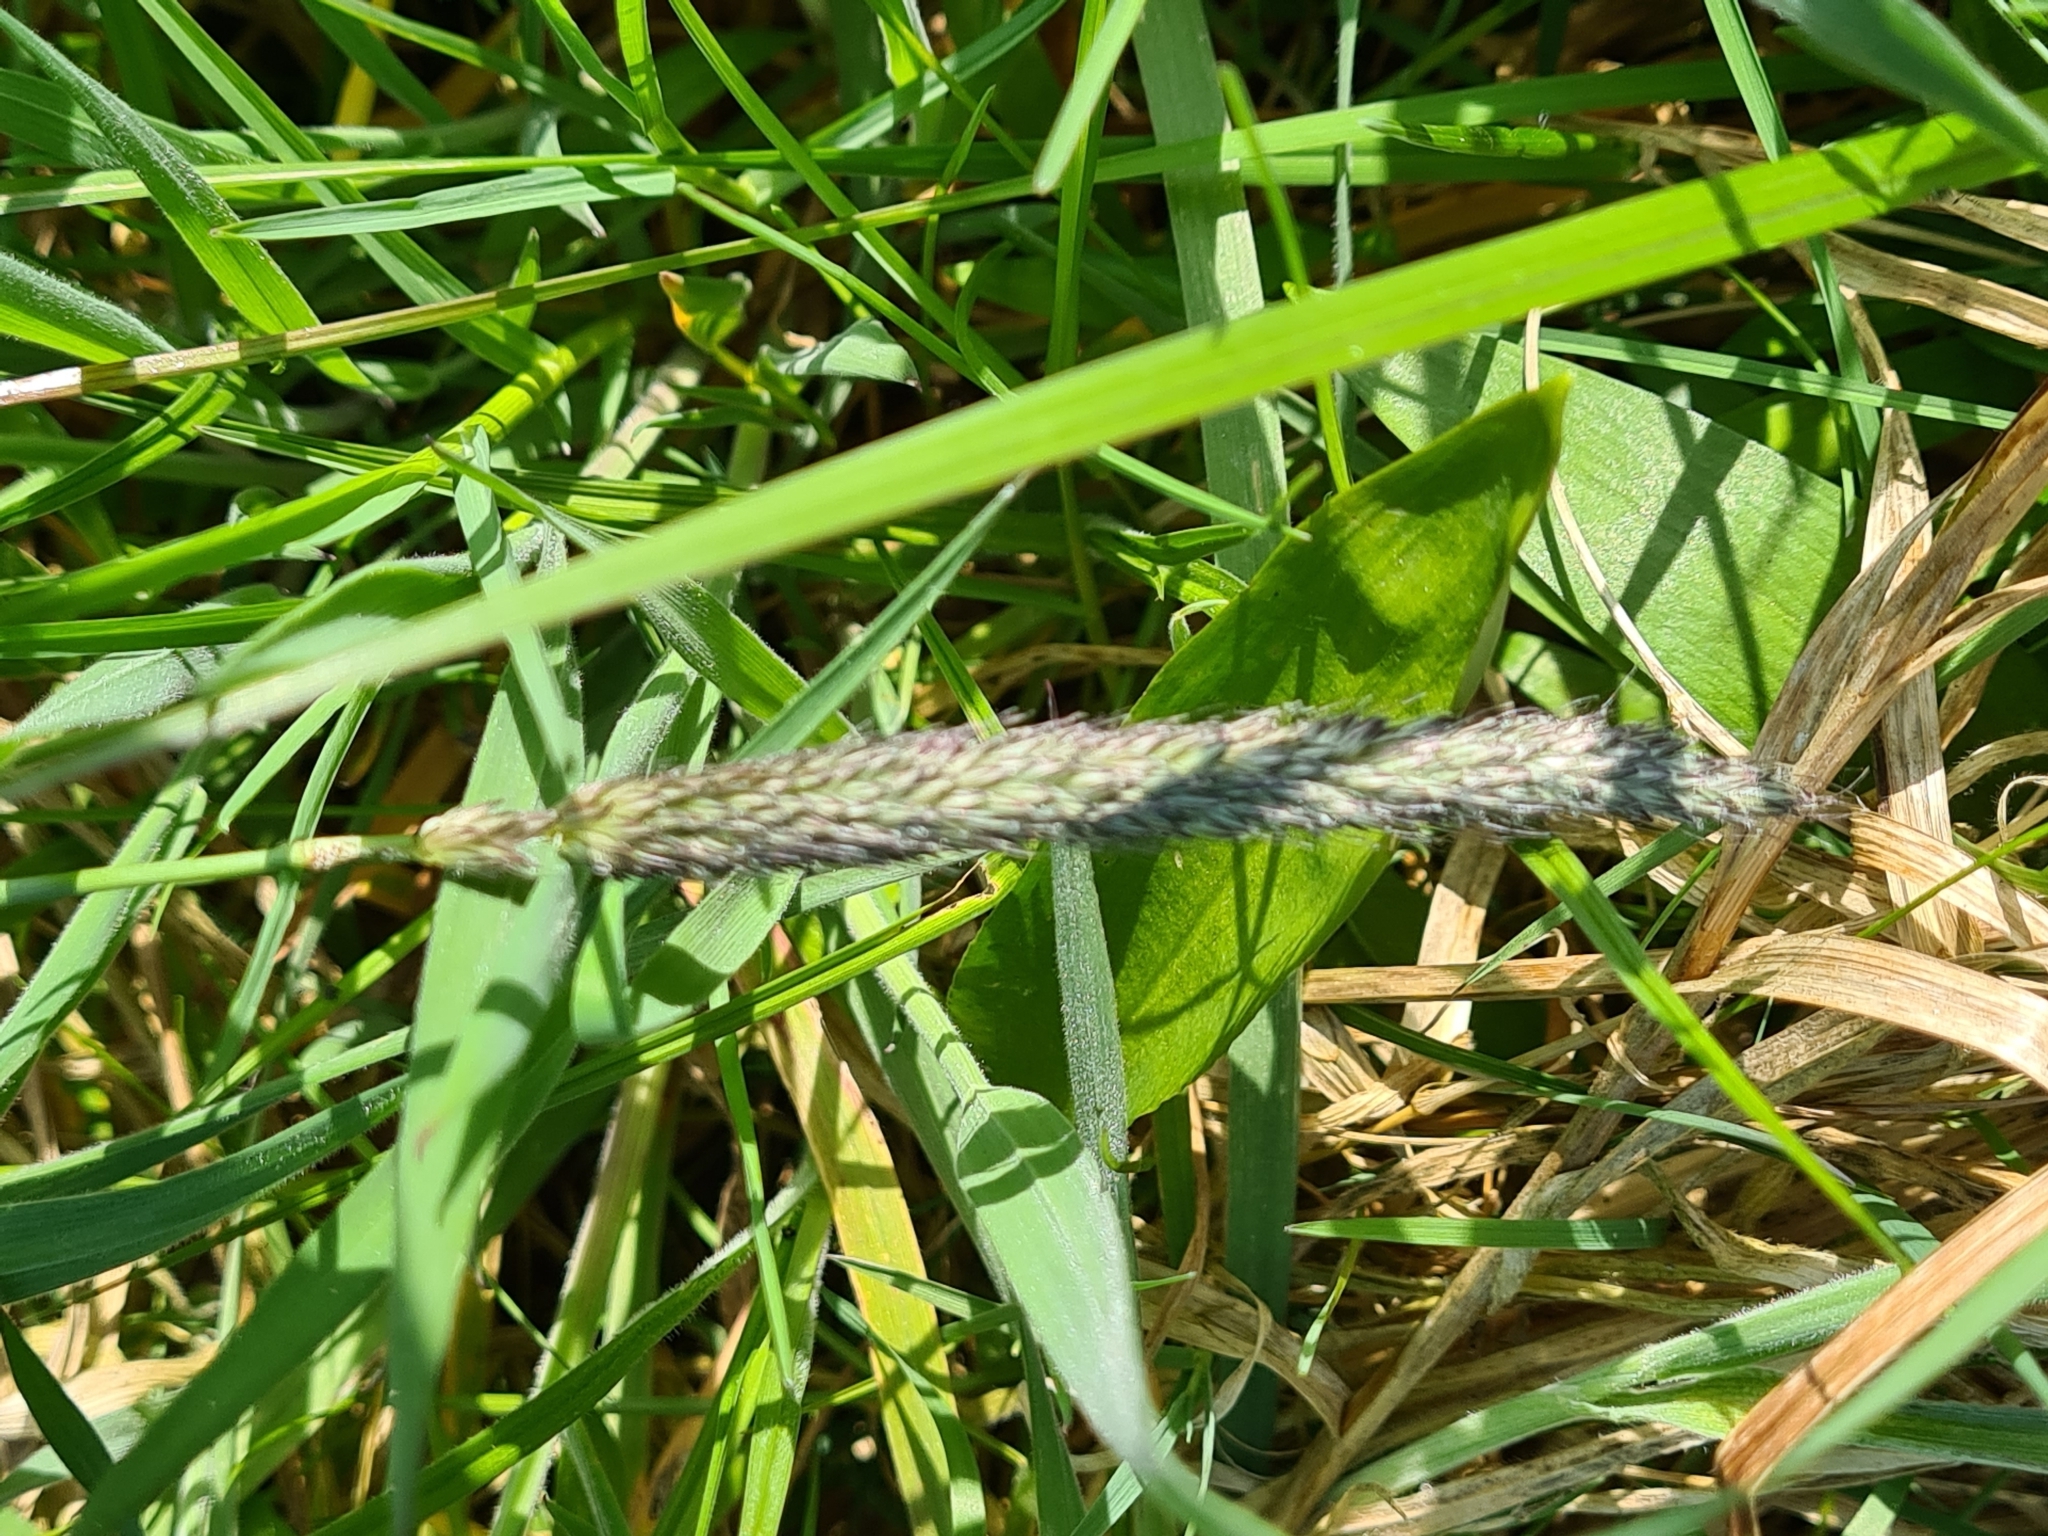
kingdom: Plantae
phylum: Tracheophyta
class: Liliopsida
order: Poales
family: Poaceae
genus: Alopecurus
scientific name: Alopecurus pratensis
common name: Meadow foxtail
